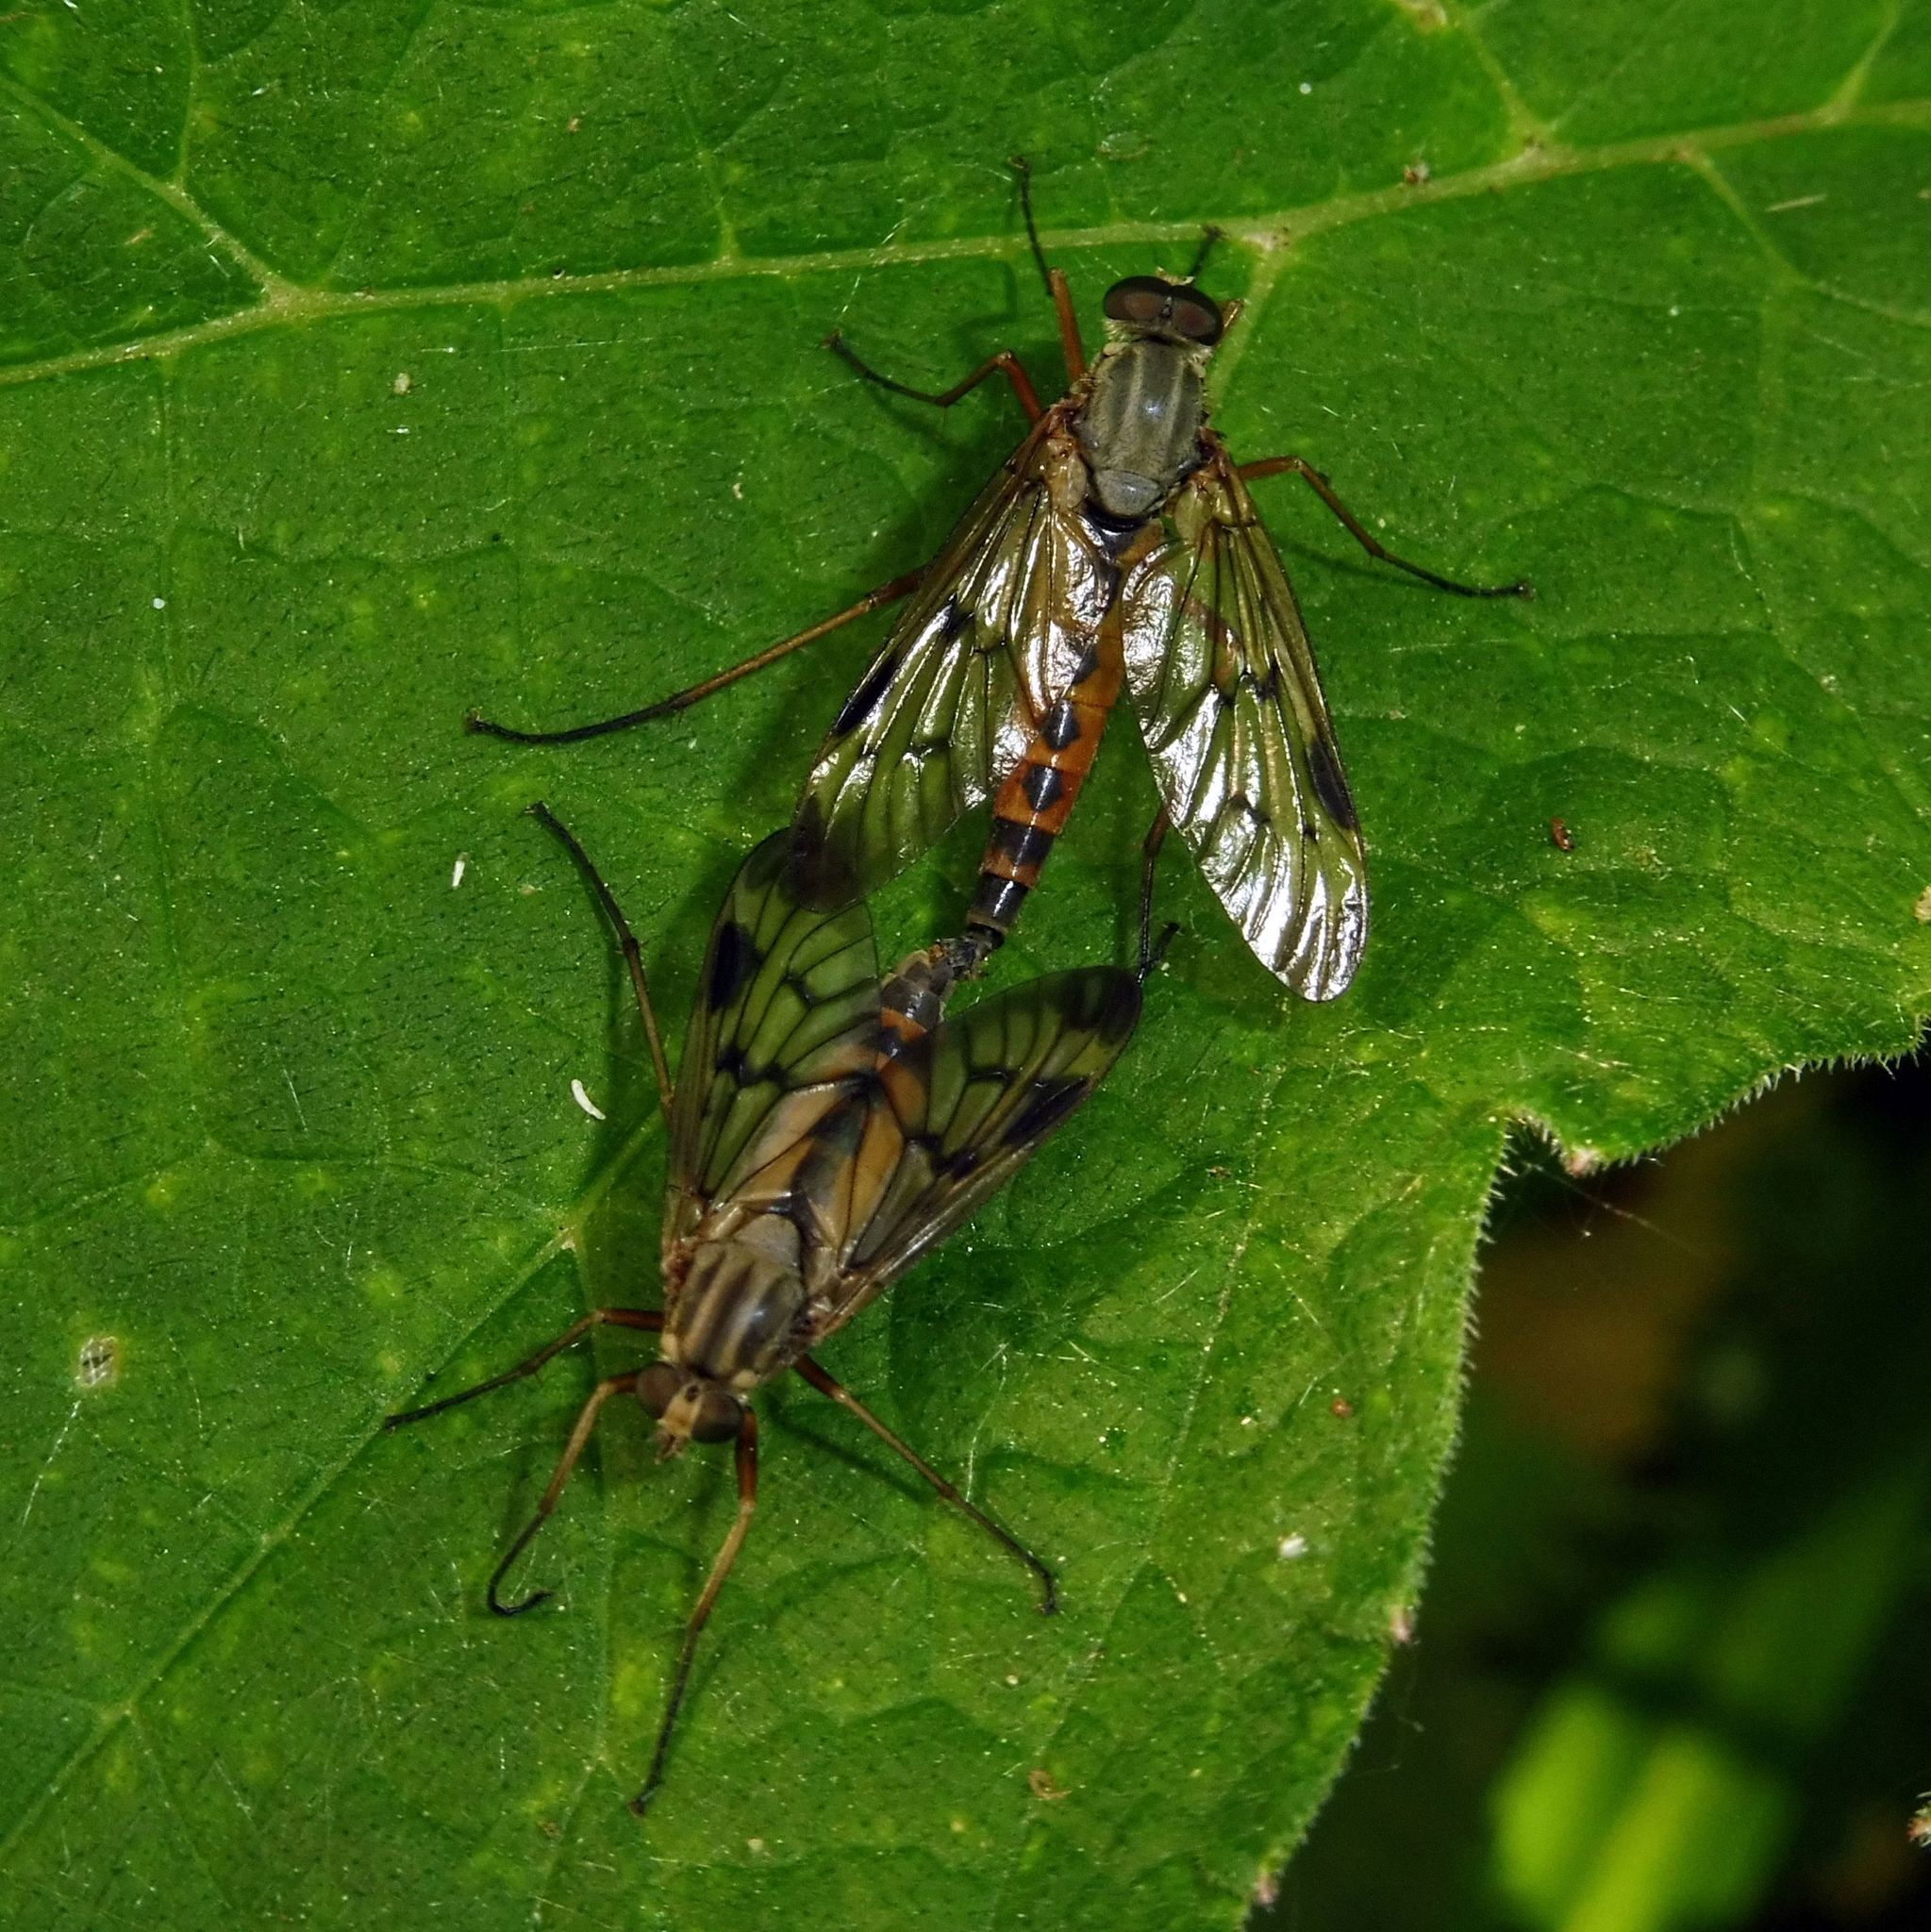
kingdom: Animalia
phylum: Arthropoda
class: Insecta
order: Diptera
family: Rhagionidae
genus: Rhagio
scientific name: Rhagio scolopacea
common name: Downlooker snipefly
